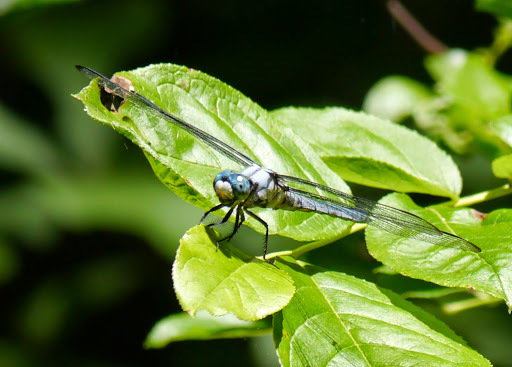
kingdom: Animalia
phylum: Arthropoda
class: Insecta
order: Odonata
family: Libellulidae
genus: Libellula
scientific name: Libellula vibrans
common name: Great blue skimmer
